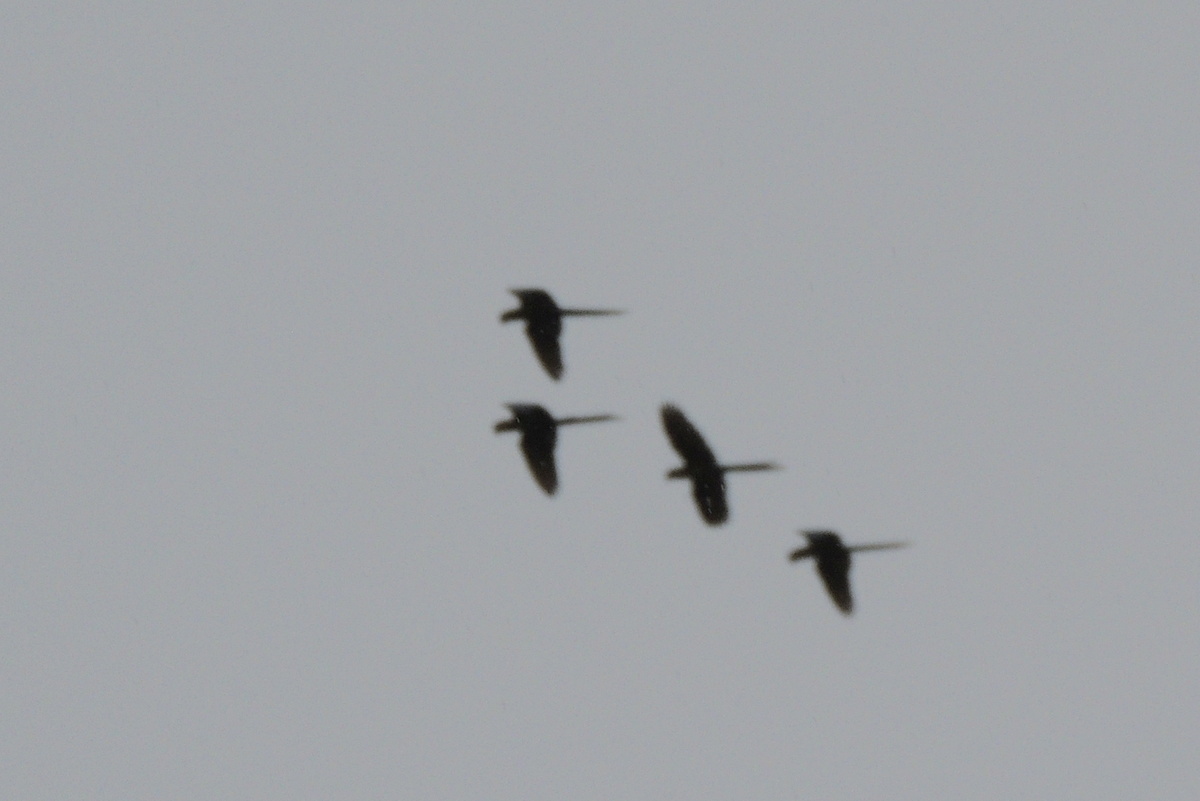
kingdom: Animalia
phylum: Chordata
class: Aves
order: Psittaciformes
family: Psittacidae
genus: Ara
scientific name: Ara ambiguus
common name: Great green macaw
